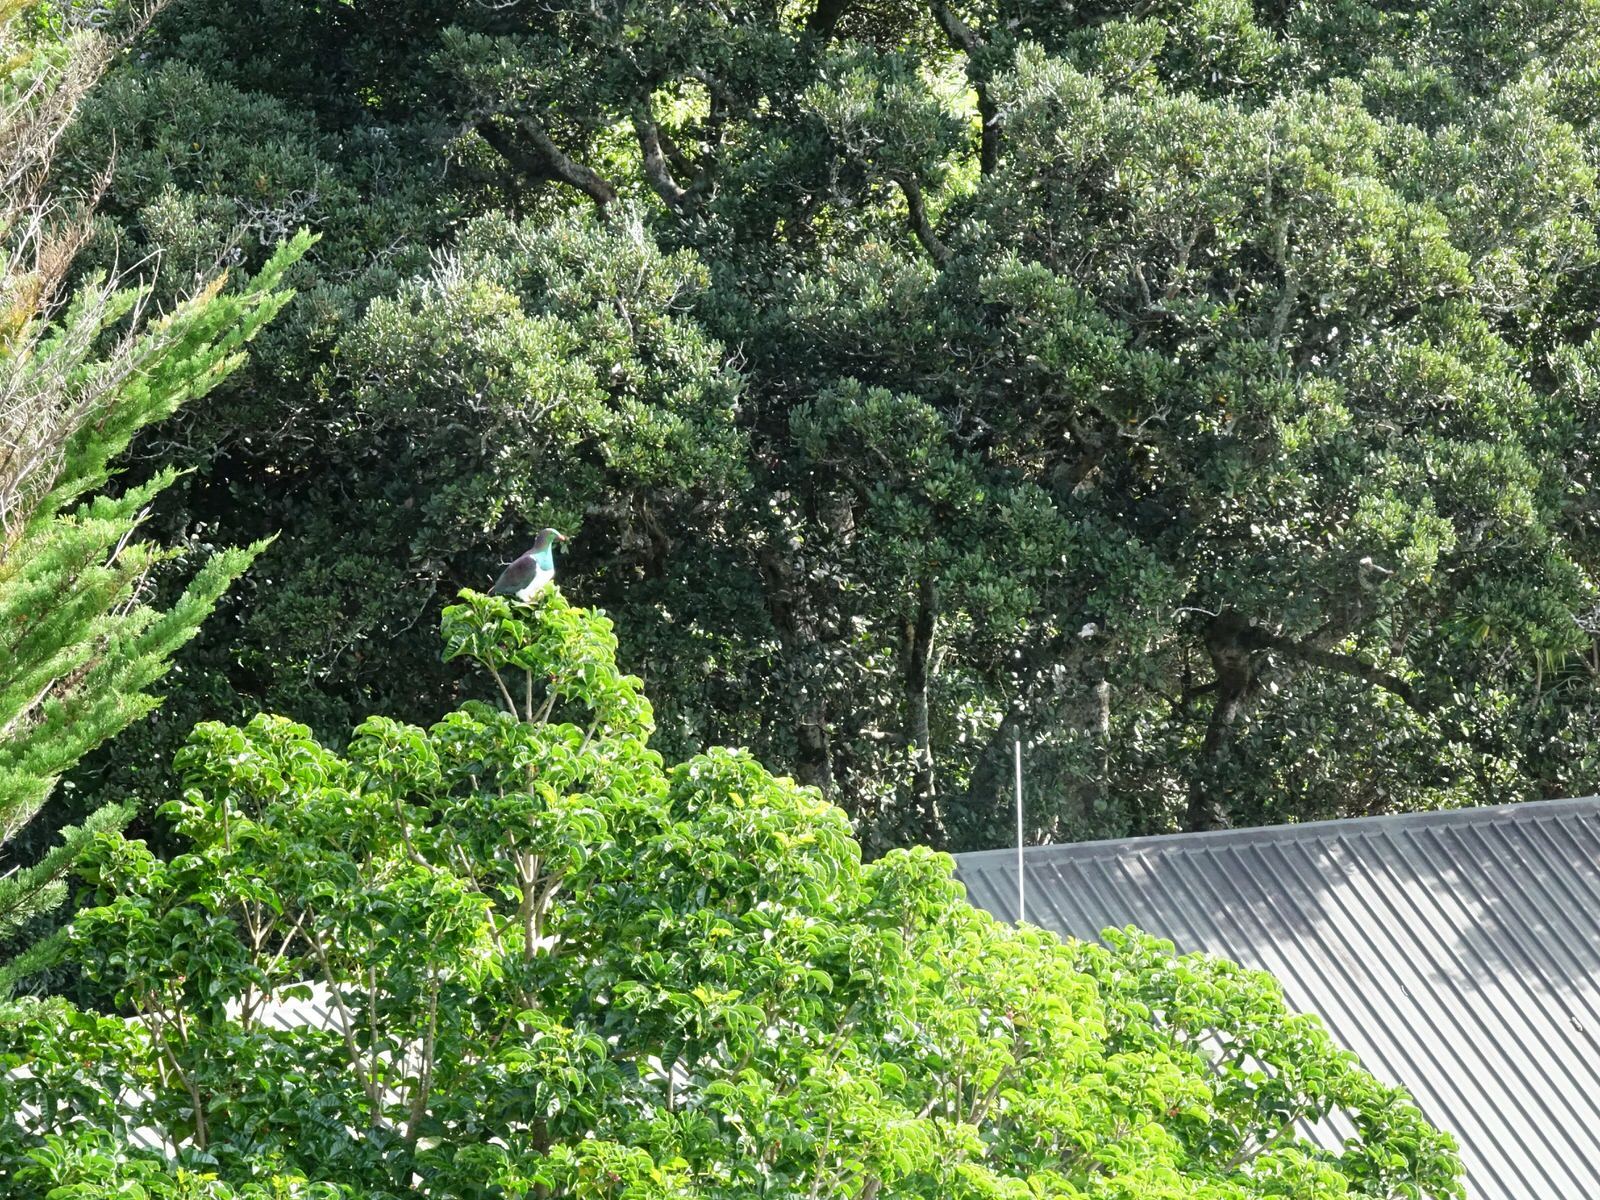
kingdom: Animalia
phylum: Chordata
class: Aves
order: Columbiformes
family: Columbidae
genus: Hemiphaga
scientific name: Hemiphaga novaeseelandiae
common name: New zealand pigeon
